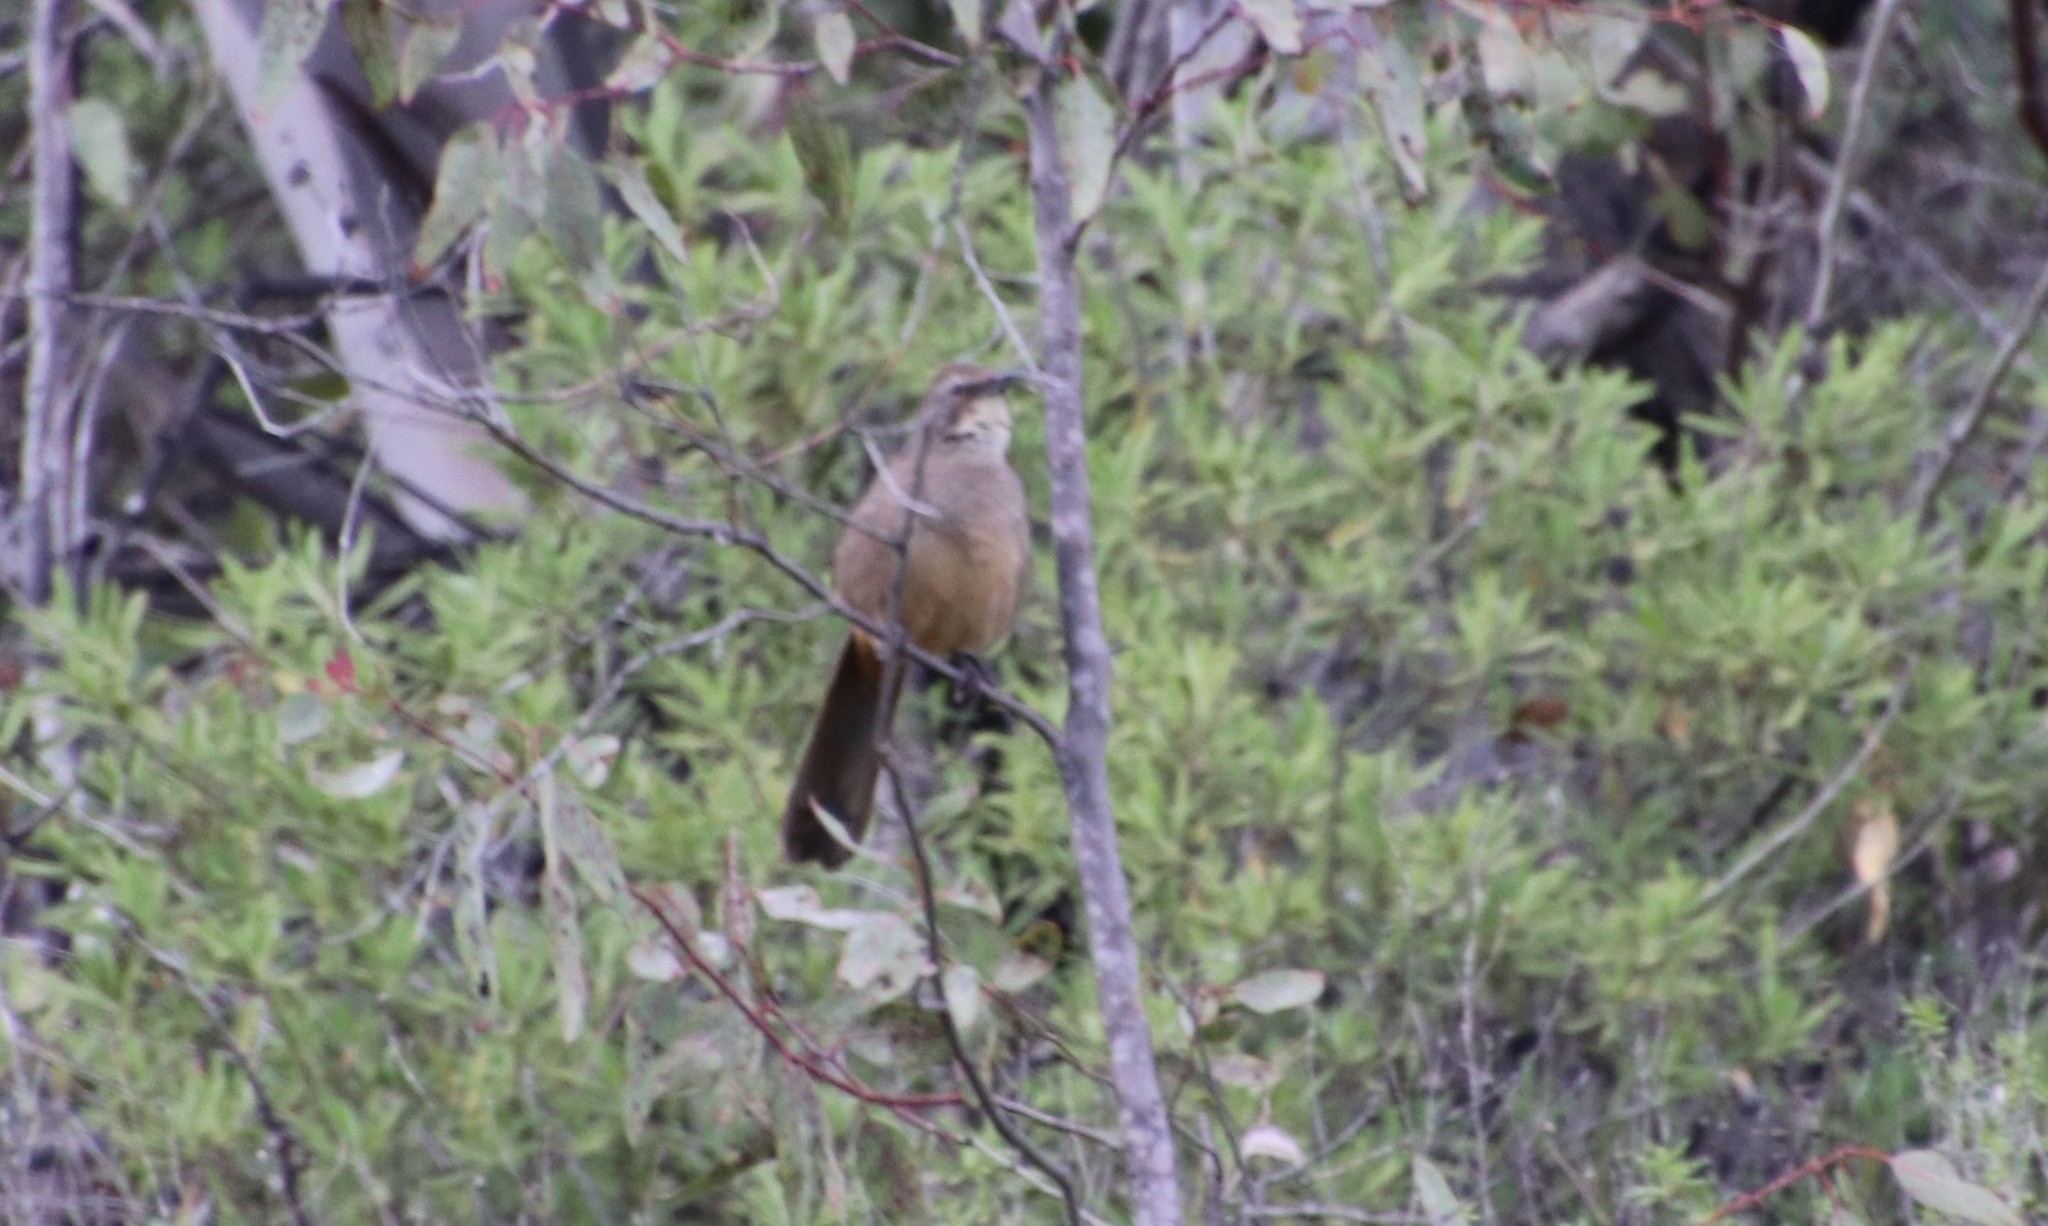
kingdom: Animalia
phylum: Chordata
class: Aves
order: Passeriformes
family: Mimidae
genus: Toxostoma
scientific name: Toxostoma redivivum
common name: California thrasher
